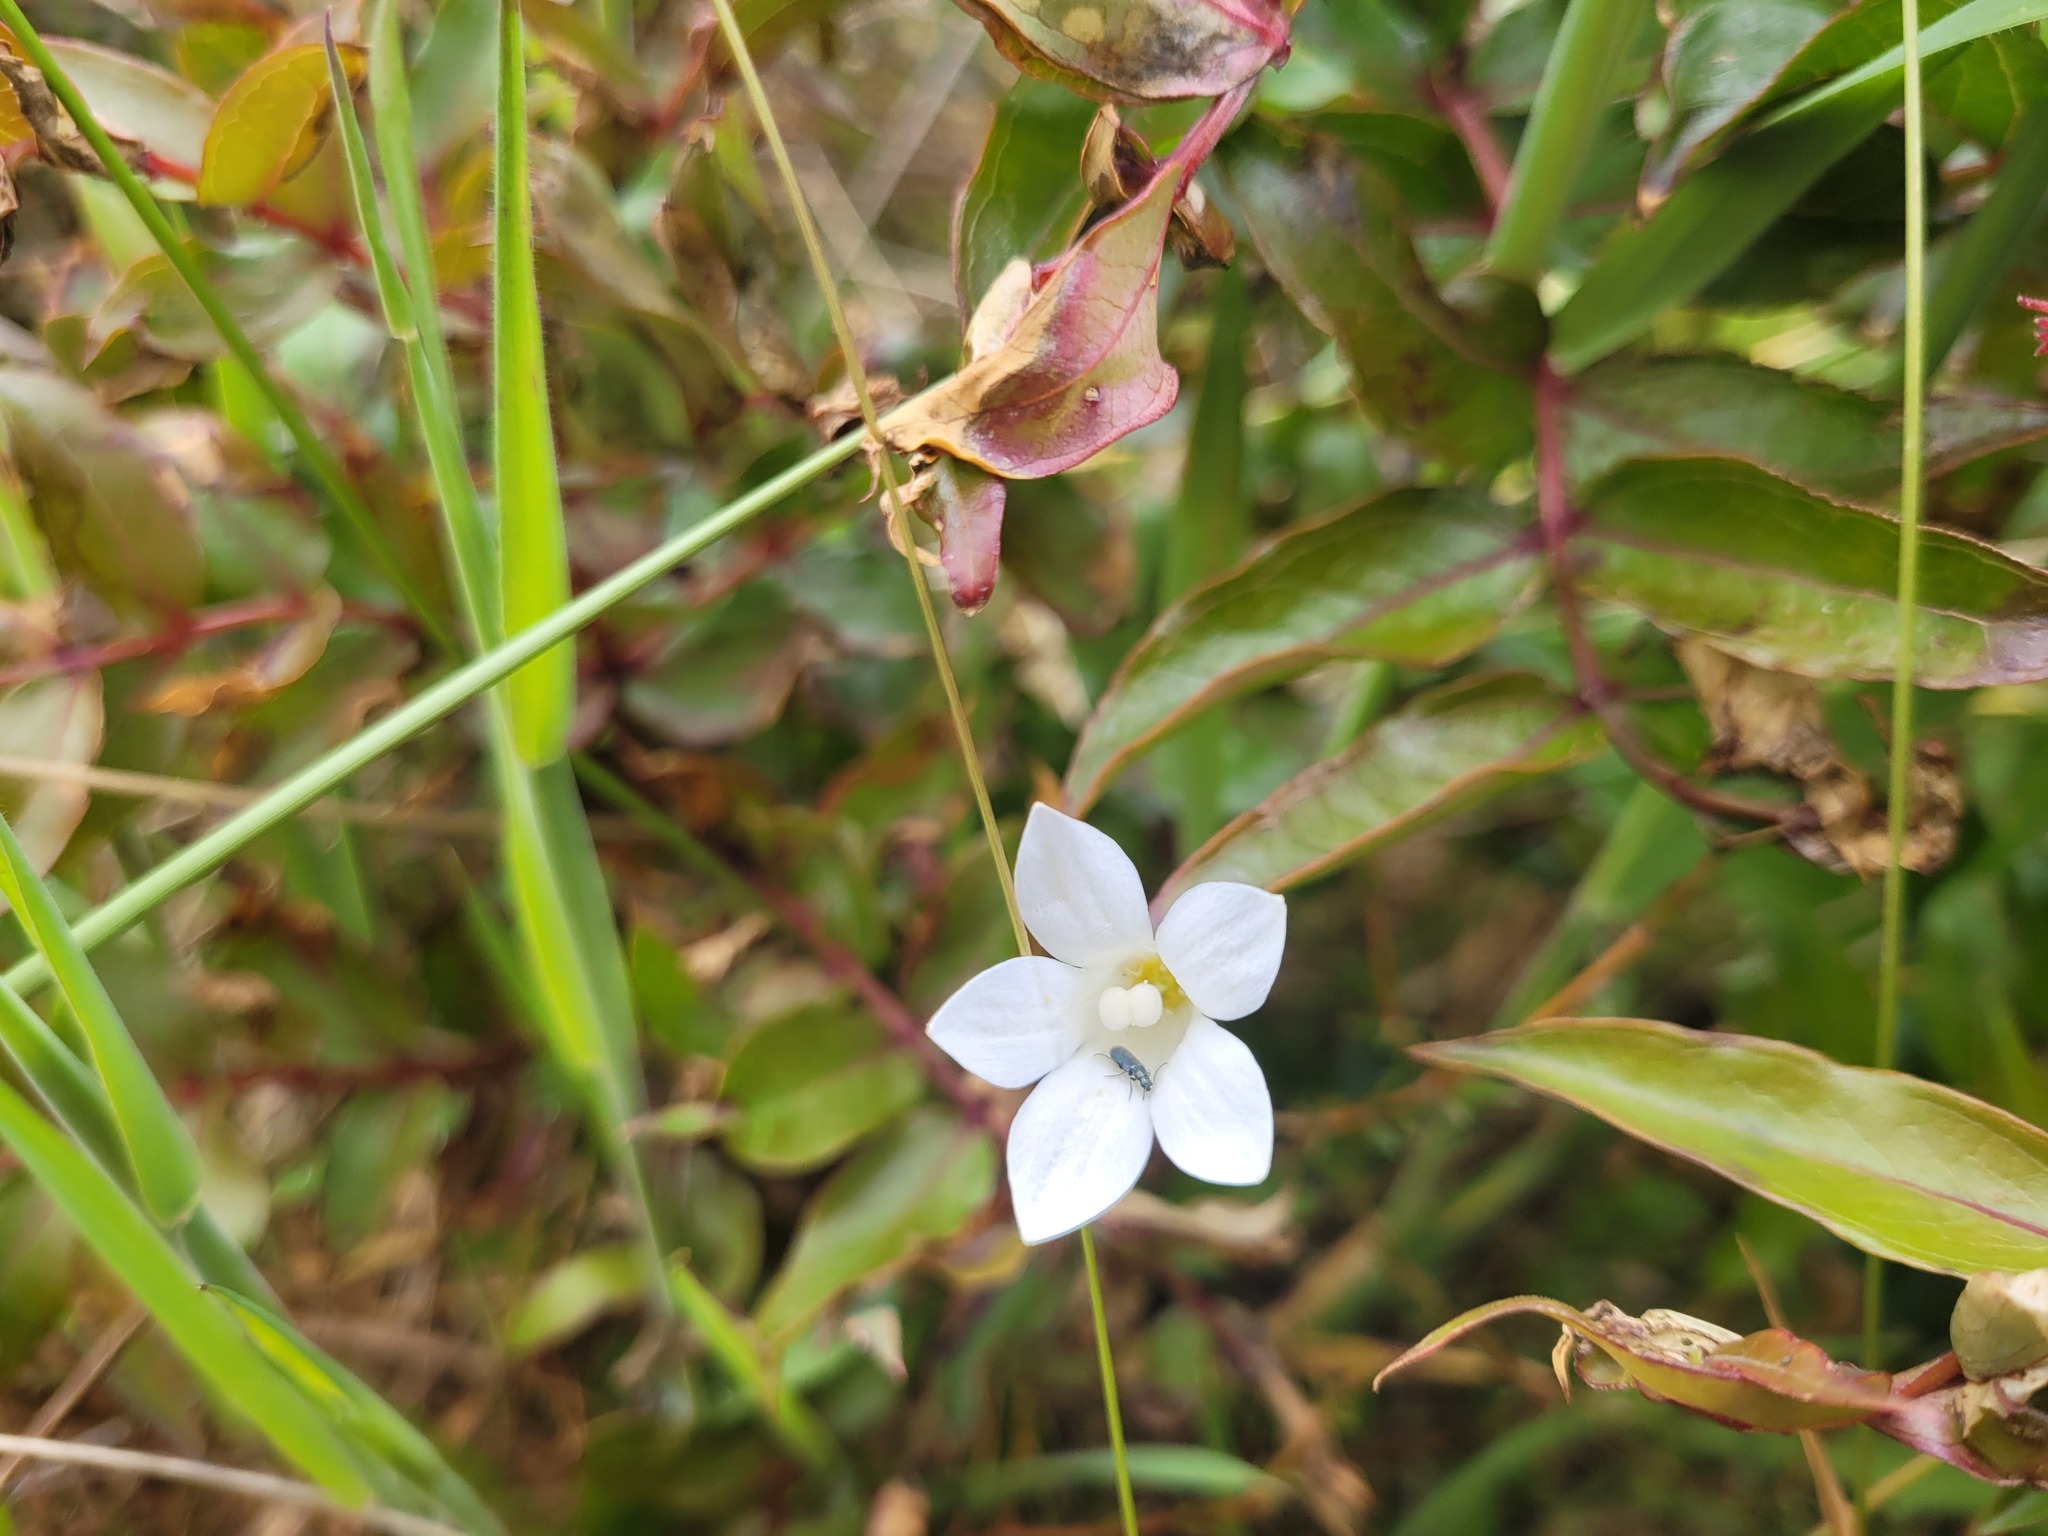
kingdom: Plantae
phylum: Tracheophyta
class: Magnoliopsida
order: Asterales
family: Campanulaceae
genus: Wahlenbergia
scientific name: Wahlenbergia albomarginata
